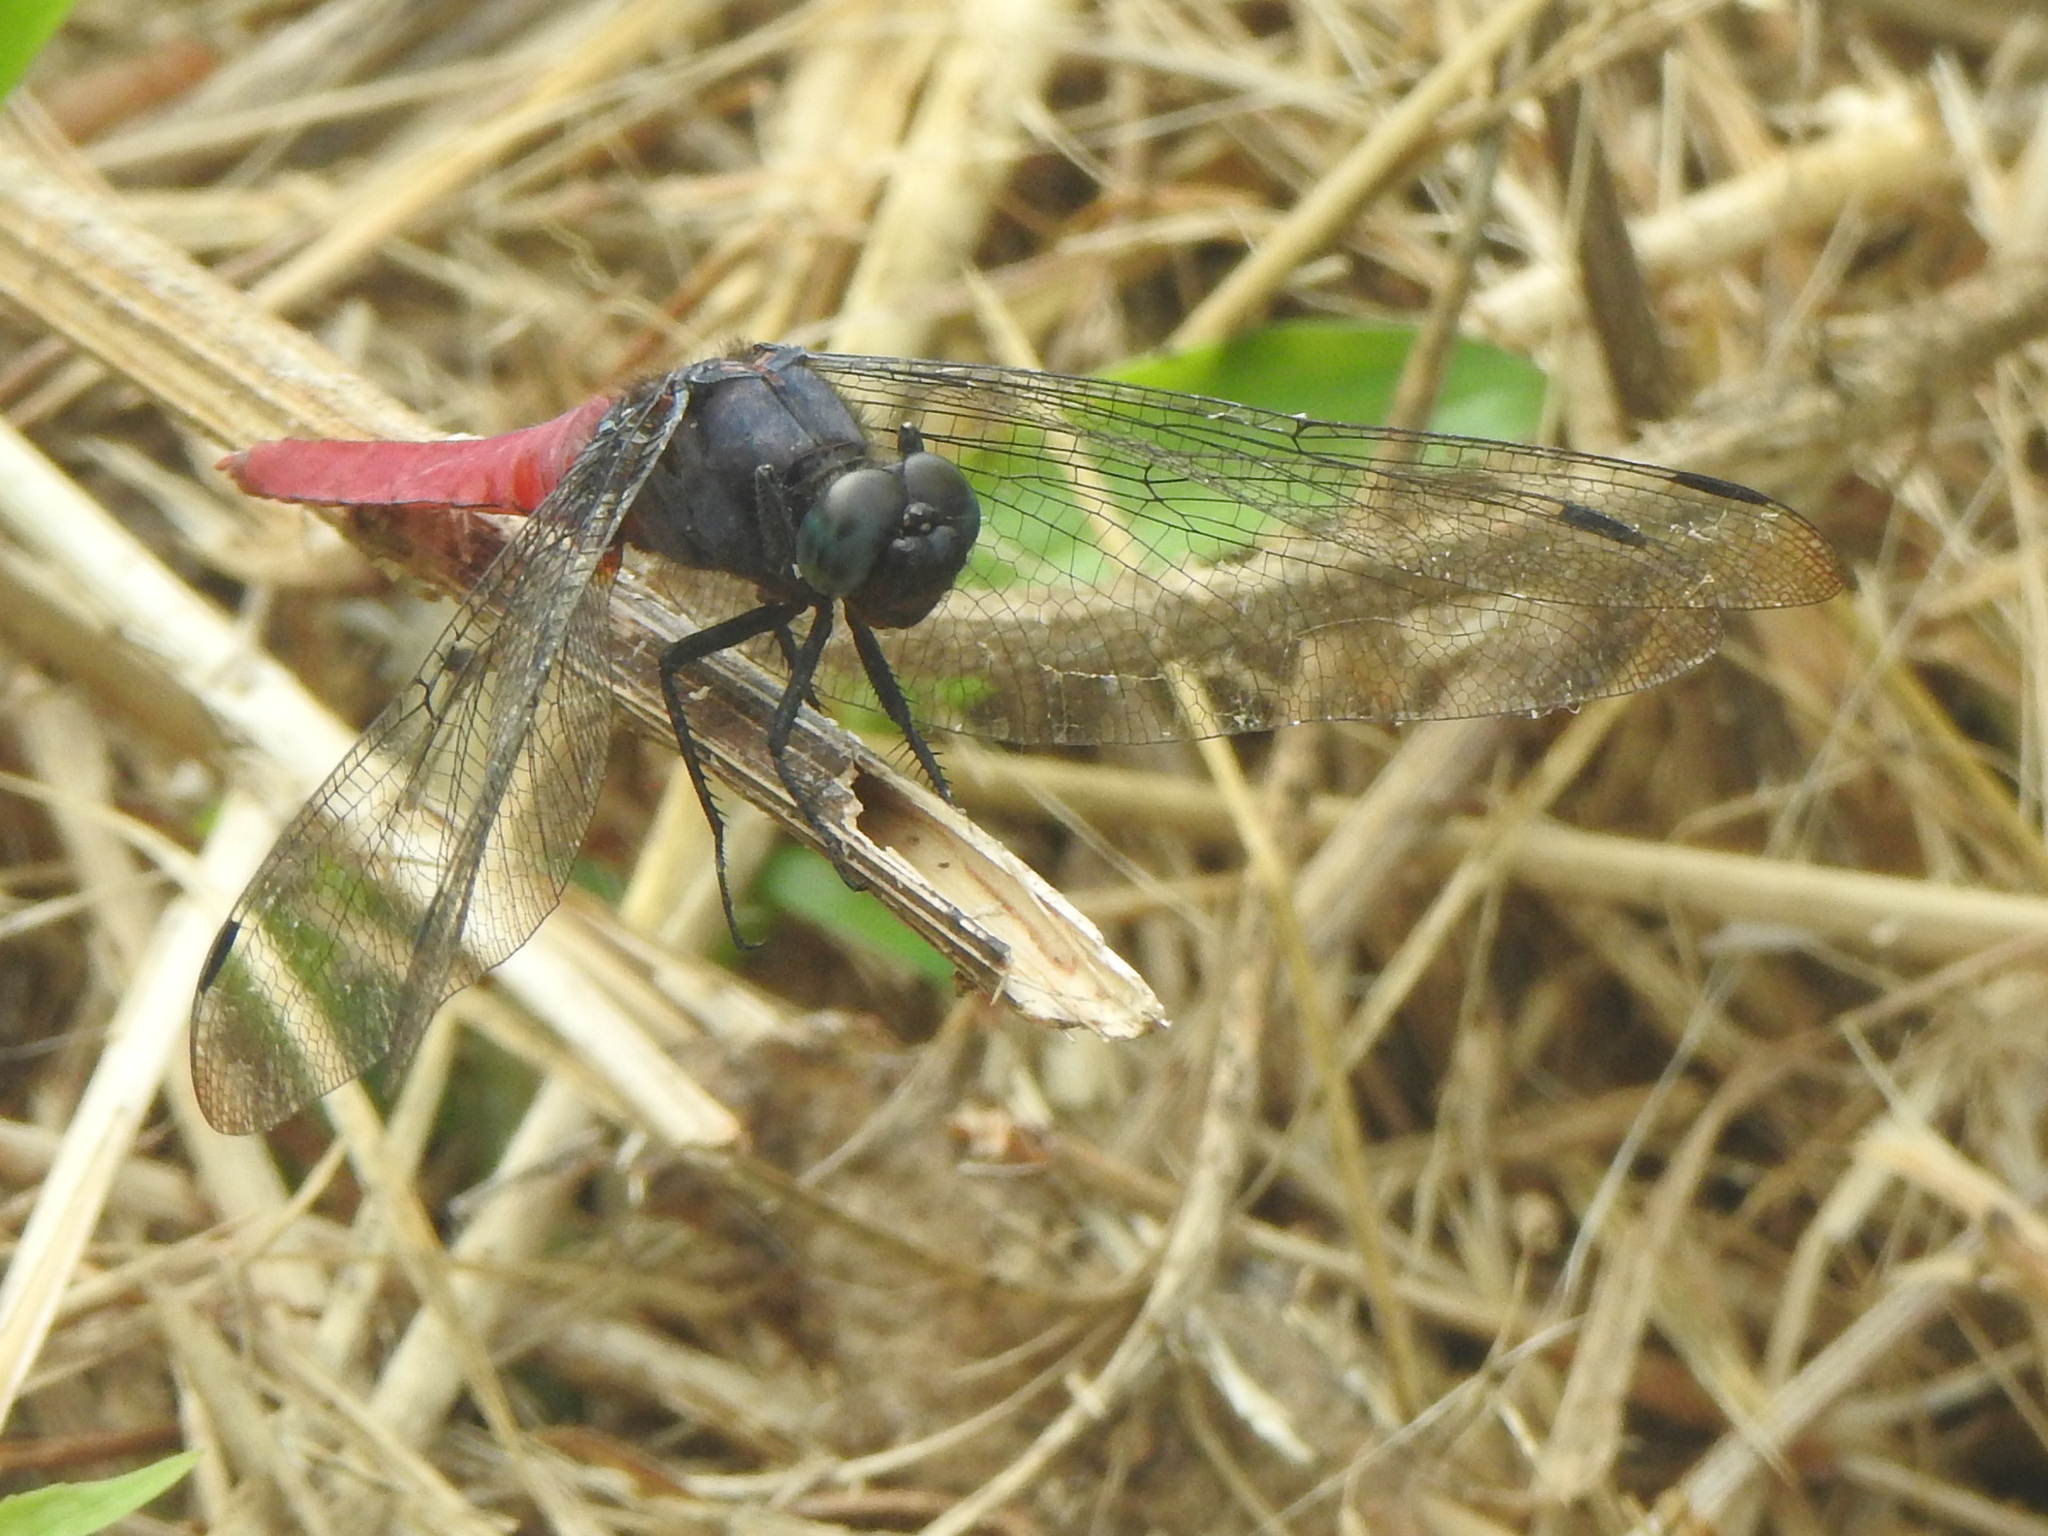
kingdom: Animalia
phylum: Arthropoda
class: Insecta
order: Odonata
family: Libellulidae
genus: Orthetrum
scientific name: Orthetrum pruinosum
